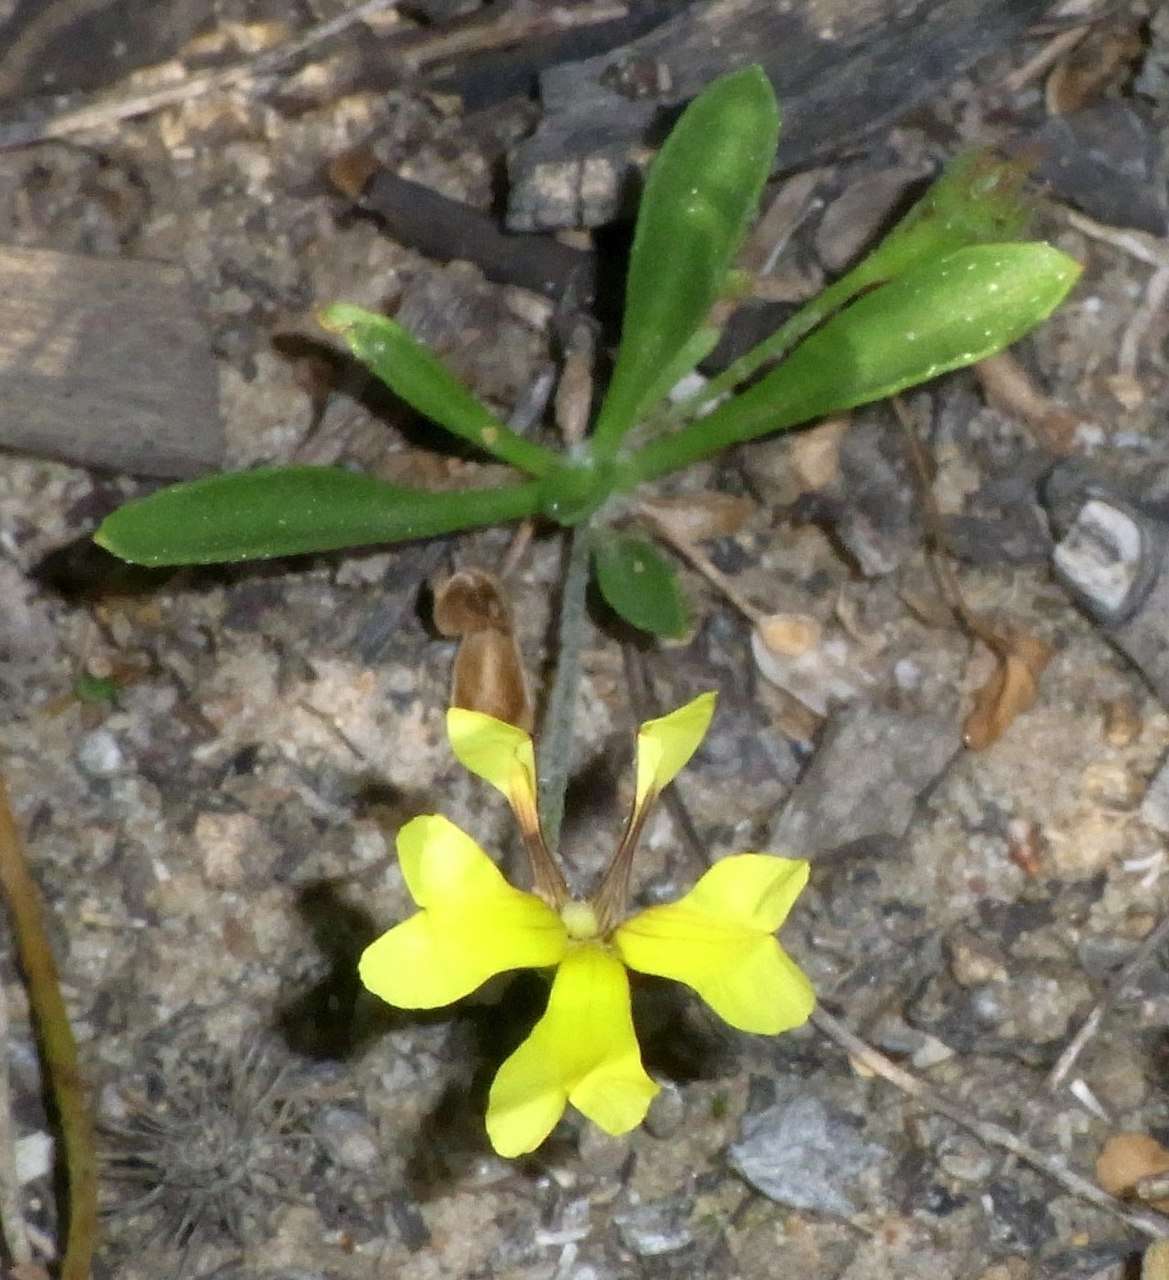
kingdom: Plantae
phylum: Tracheophyta
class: Magnoliopsida
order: Asterales
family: Goodeniaceae
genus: Goodenia
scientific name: Goodenia heteromera
